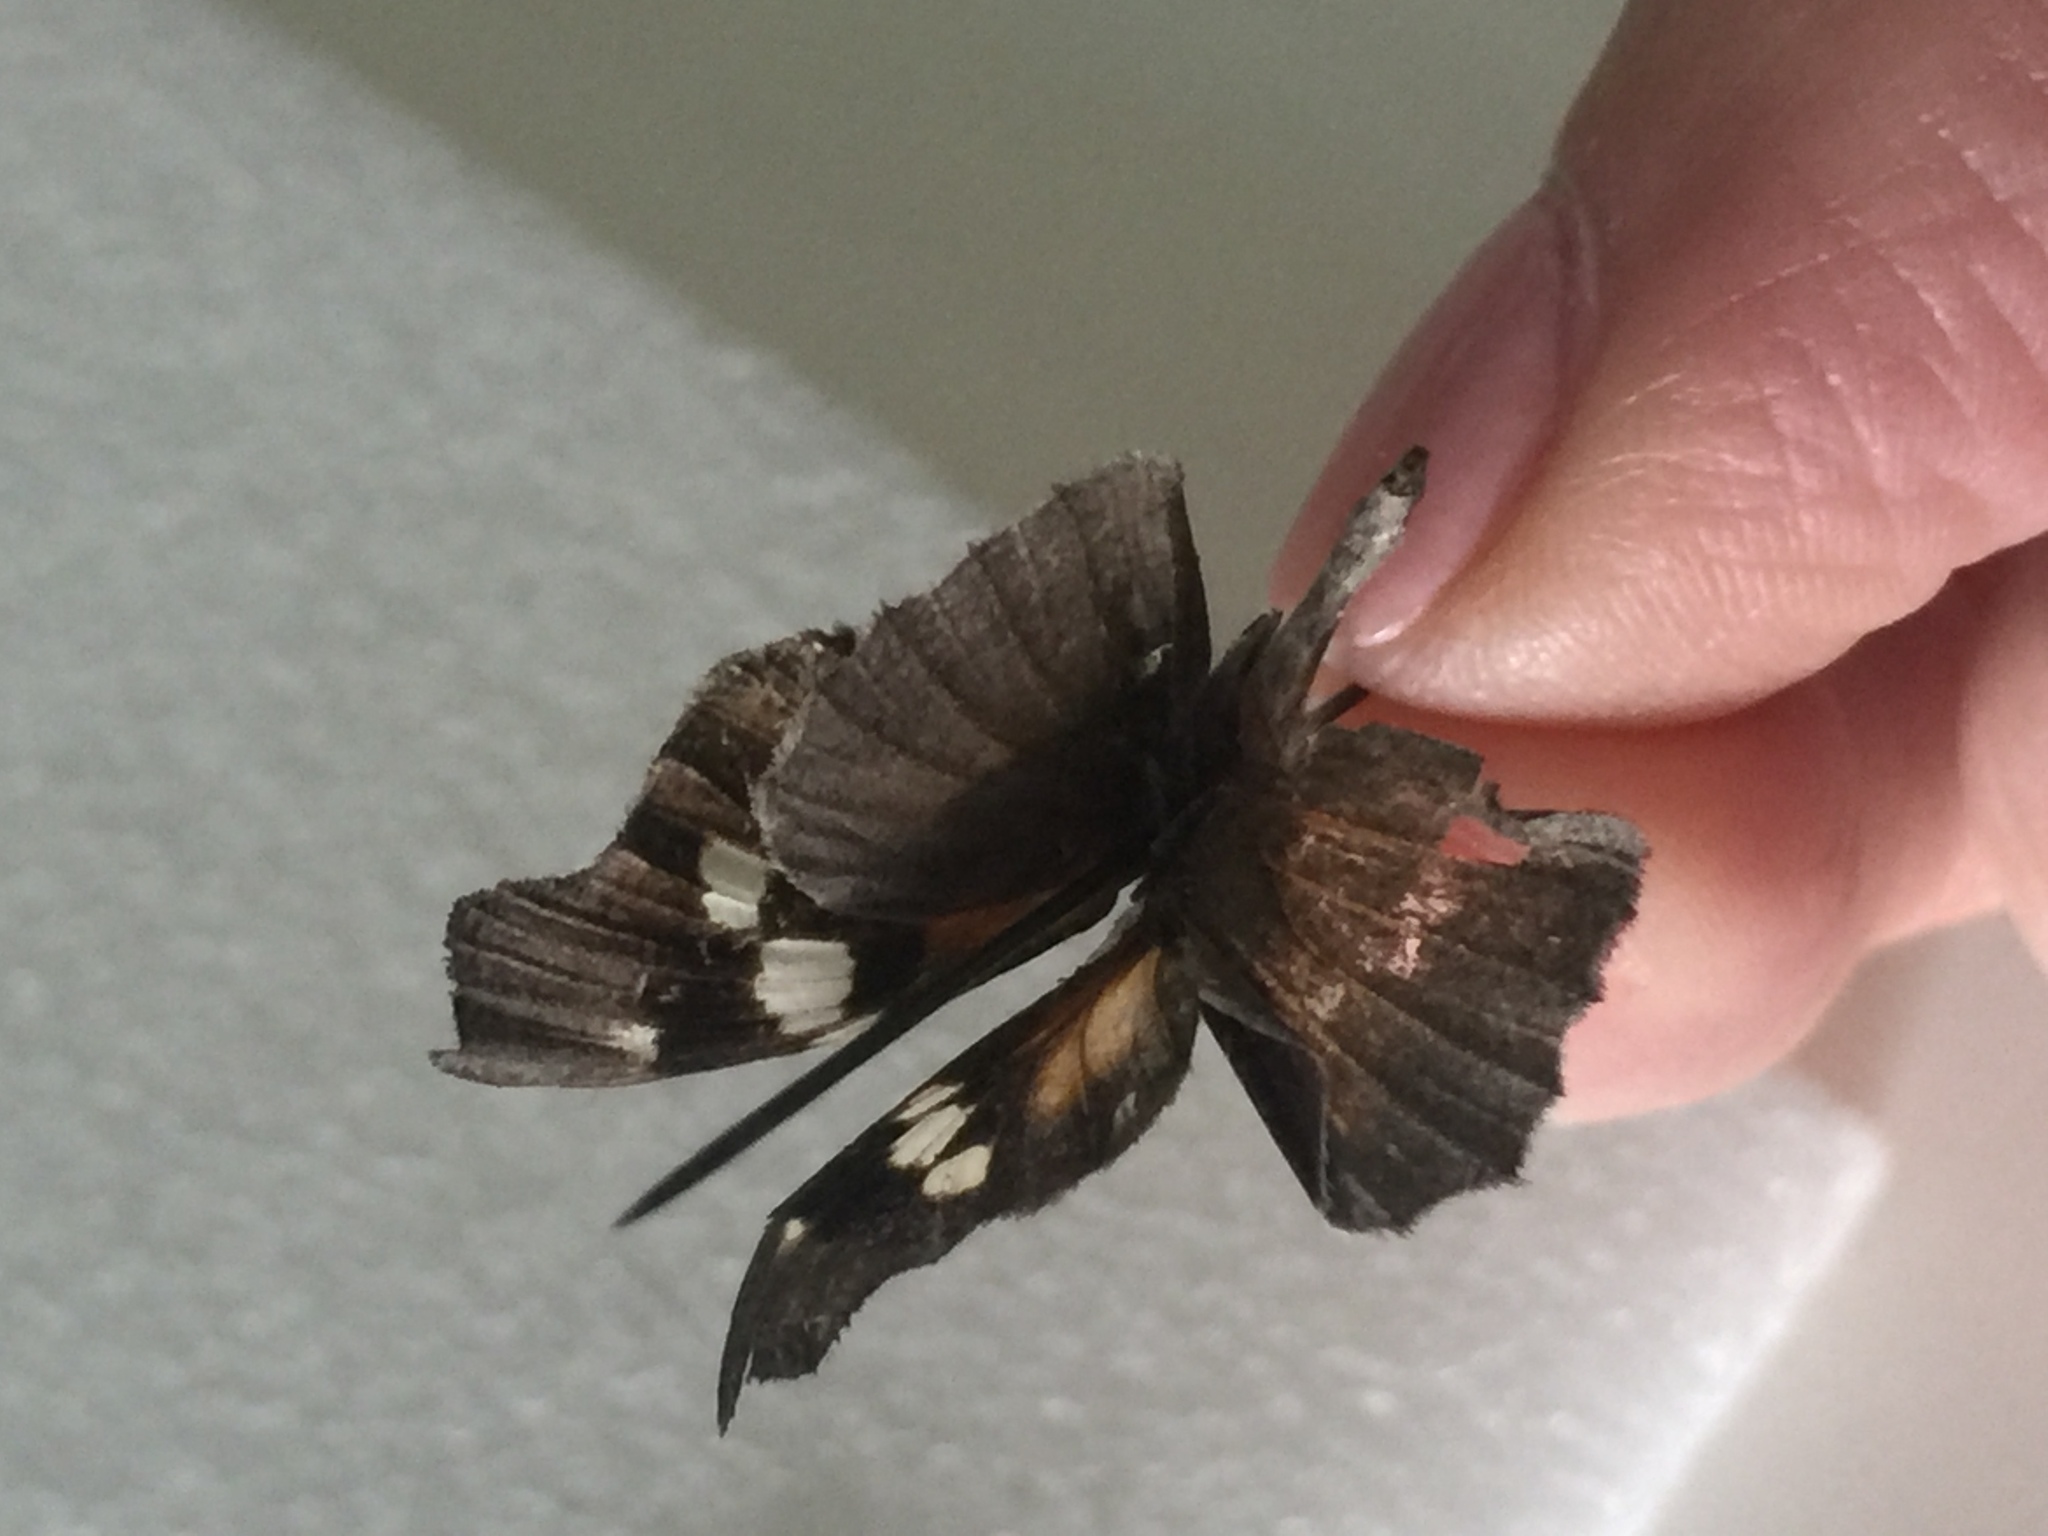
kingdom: Animalia
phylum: Arthropoda
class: Insecta
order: Lepidoptera
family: Nymphalidae
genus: Libytheana
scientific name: Libytheana carinenta
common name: American snout
